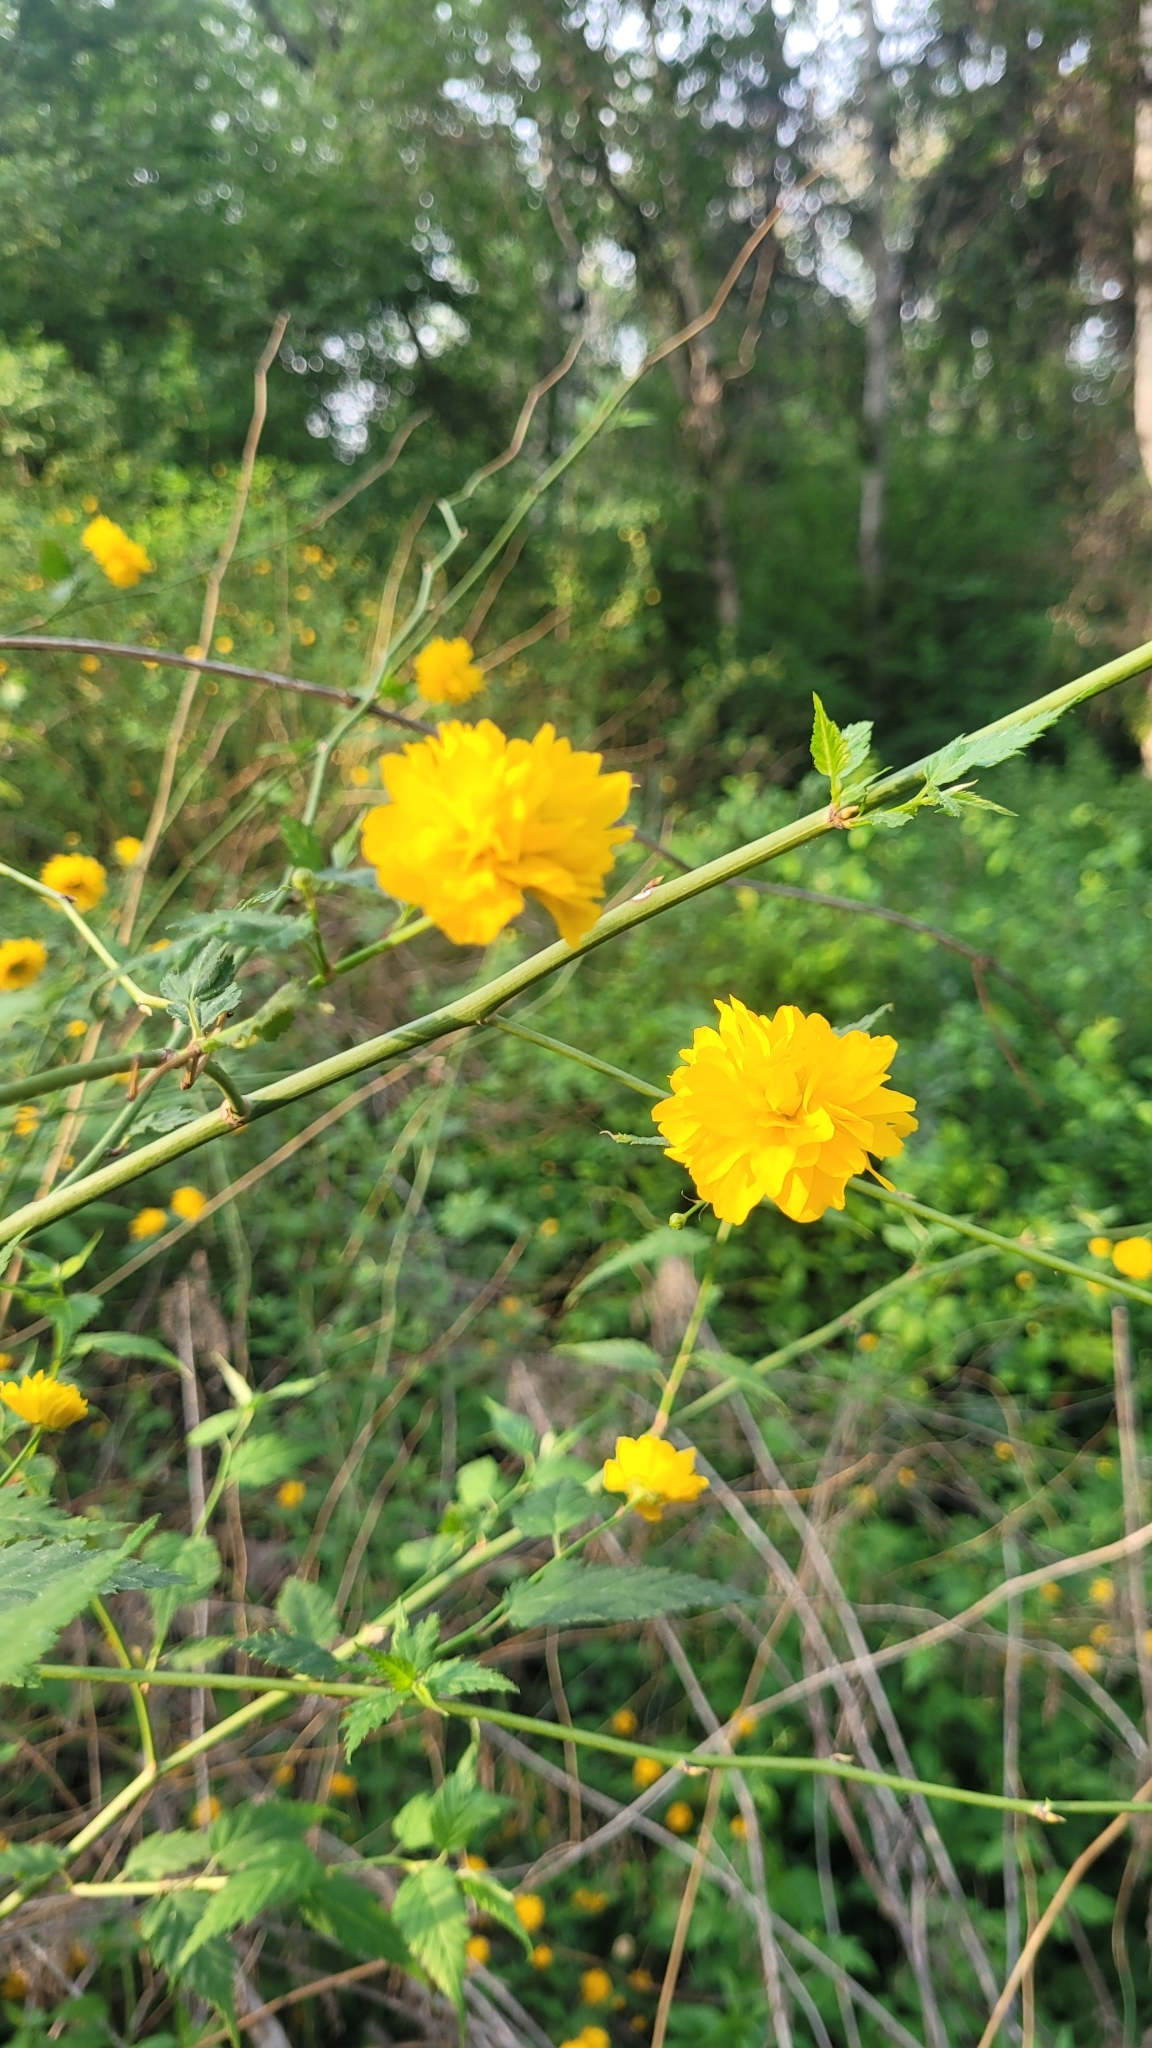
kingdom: Plantae
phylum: Tracheophyta
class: Magnoliopsida
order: Rosales
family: Rosaceae
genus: Kerria
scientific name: Kerria japonica
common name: Japanese kerria
